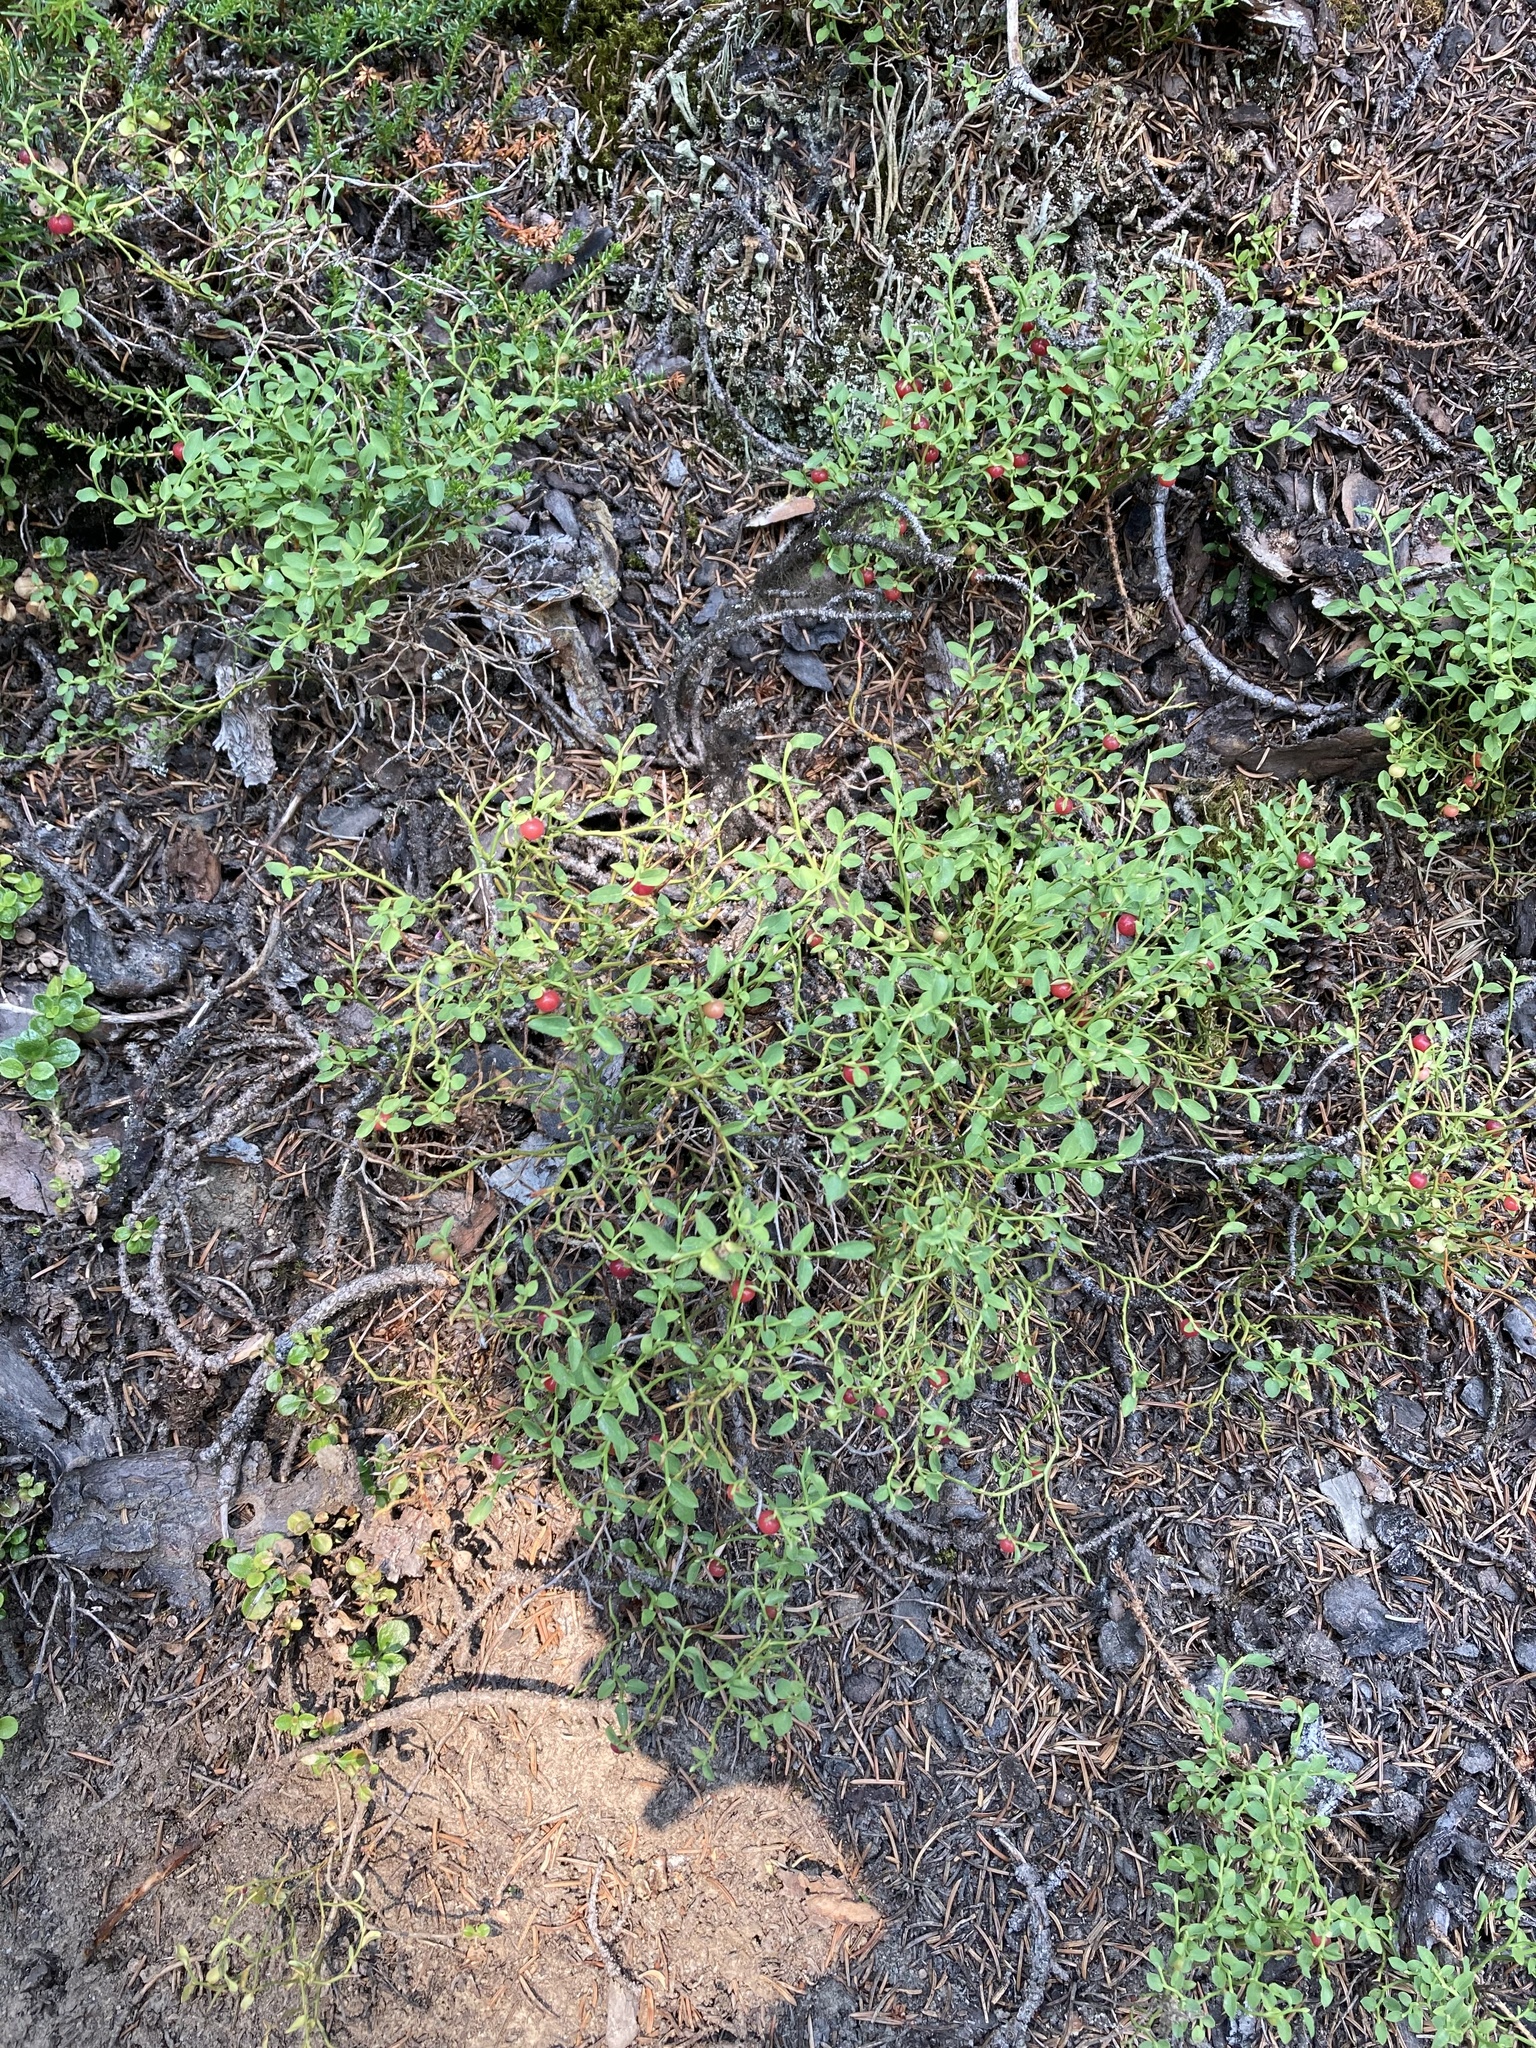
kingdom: Plantae
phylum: Tracheophyta
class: Magnoliopsida
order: Ericales
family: Ericaceae
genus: Vaccinium
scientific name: Vaccinium scoparium
